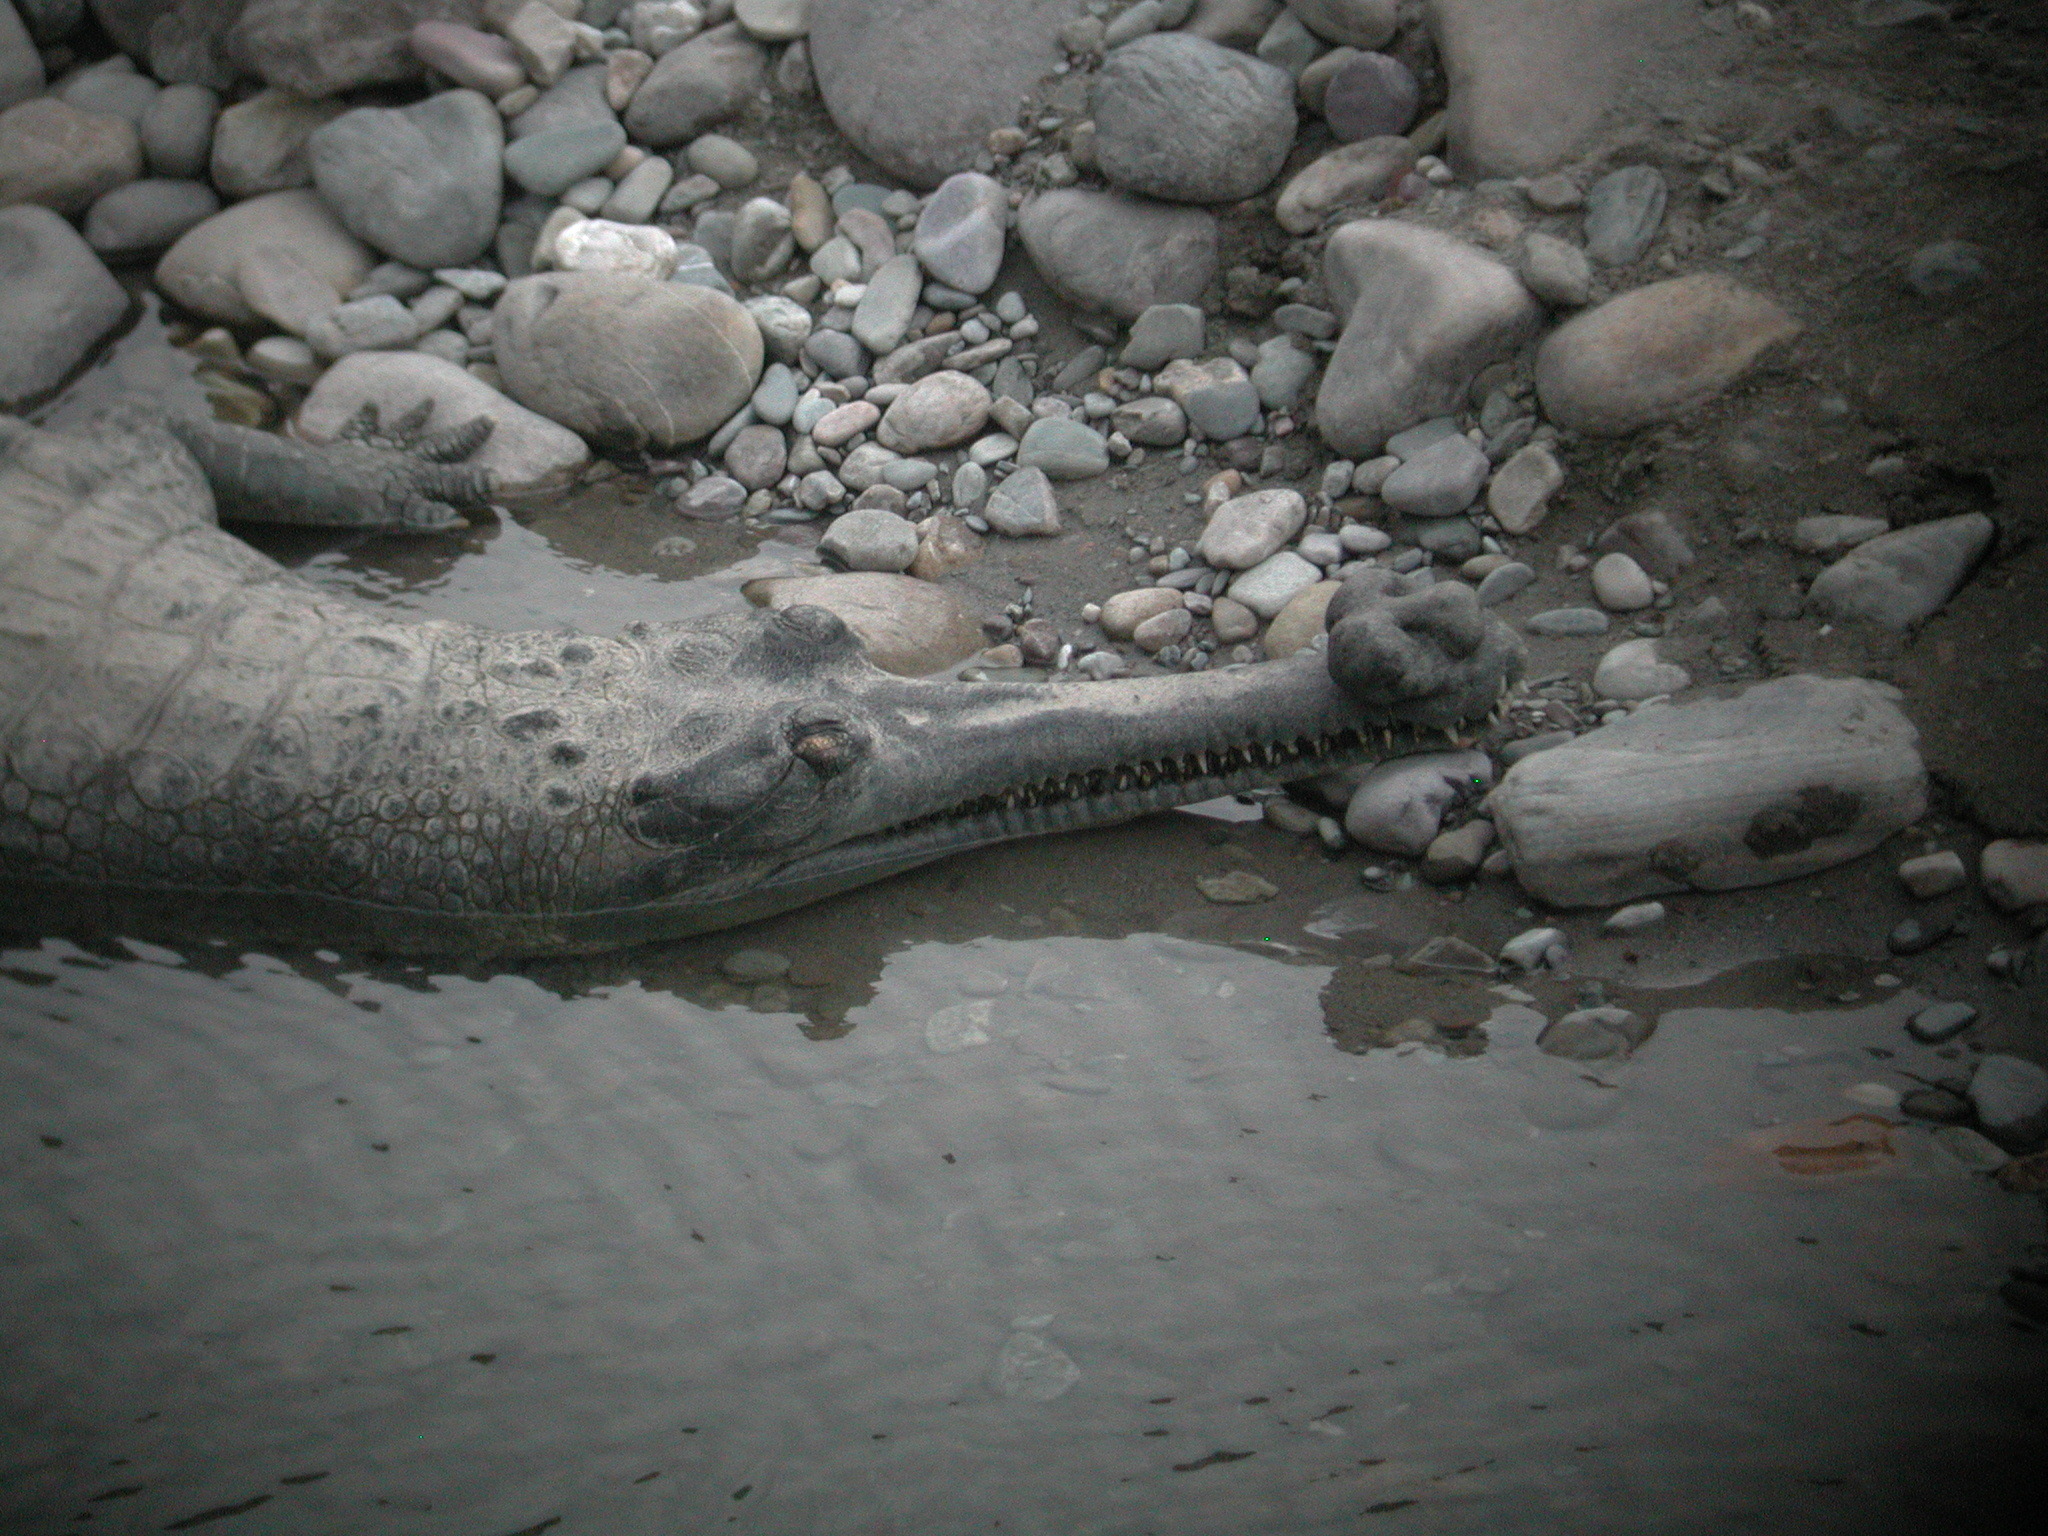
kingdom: Animalia
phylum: Chordata
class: Crocodylia
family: Gavialidae
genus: Gavialis
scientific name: Gavialis gangeticus
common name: Gharial
